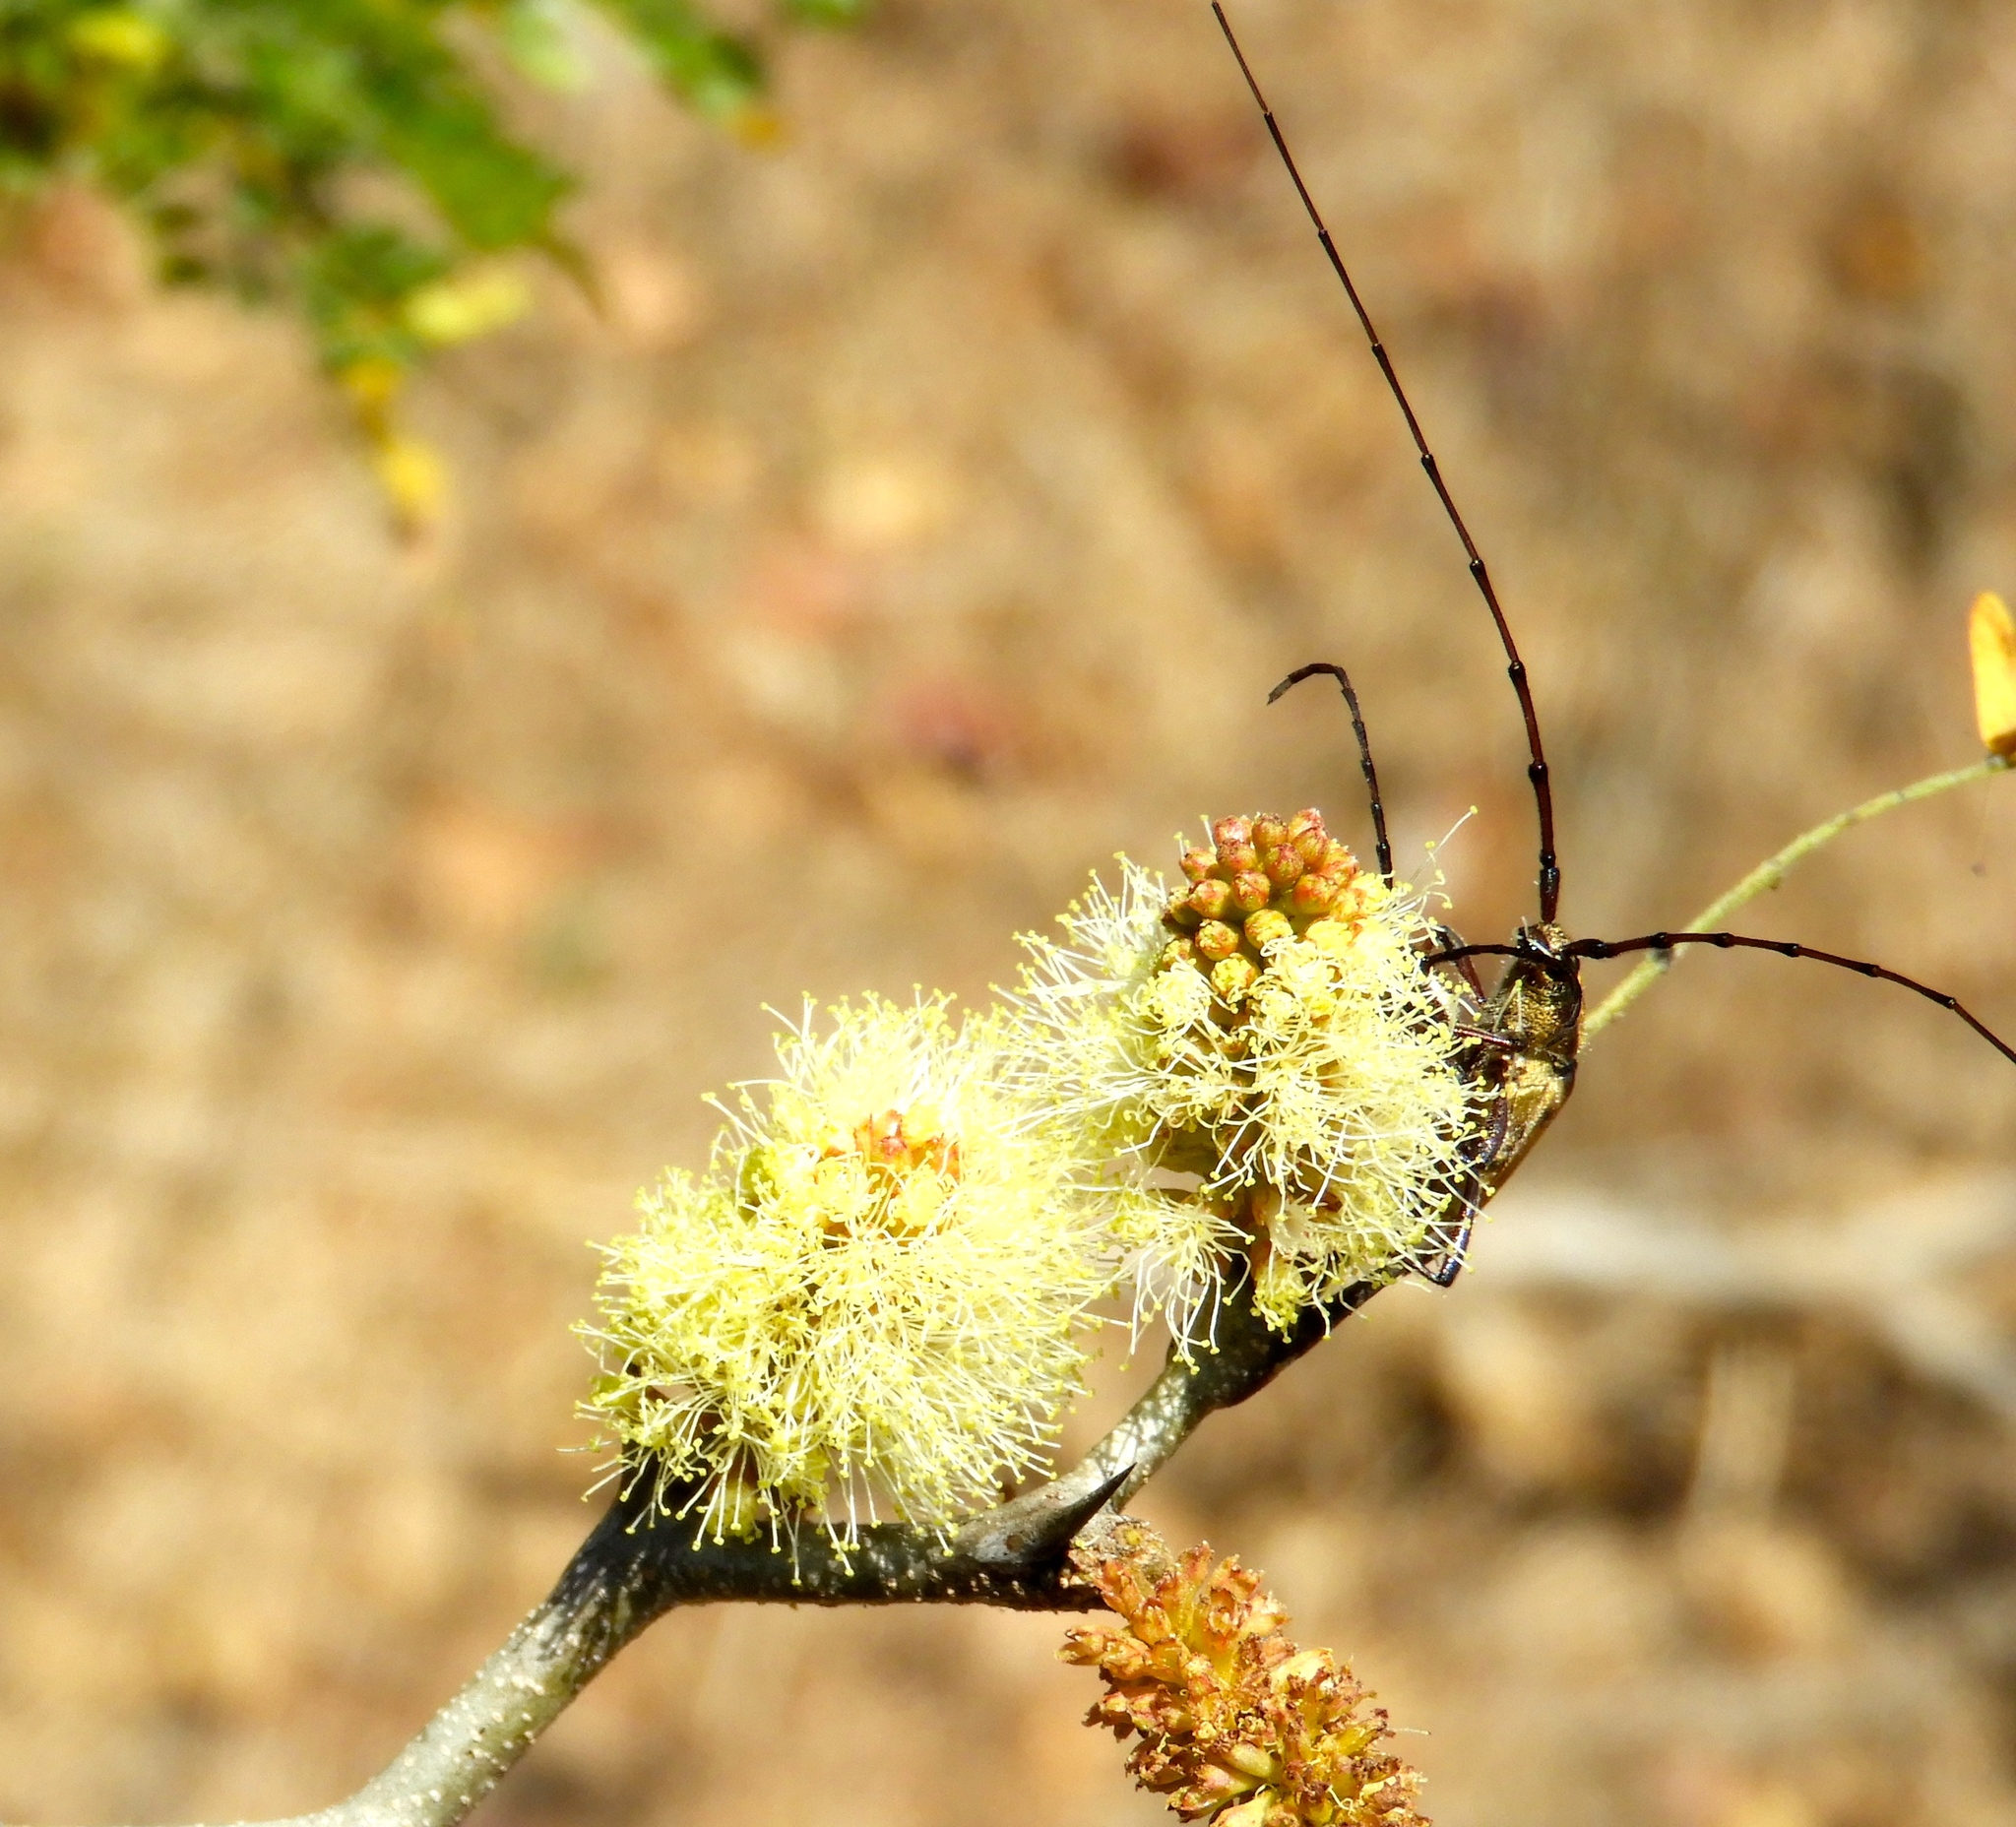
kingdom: Animalia
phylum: Arthropoda
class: Insecta
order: Coleoptera
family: Cerambycidae
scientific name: Cerambycidae
